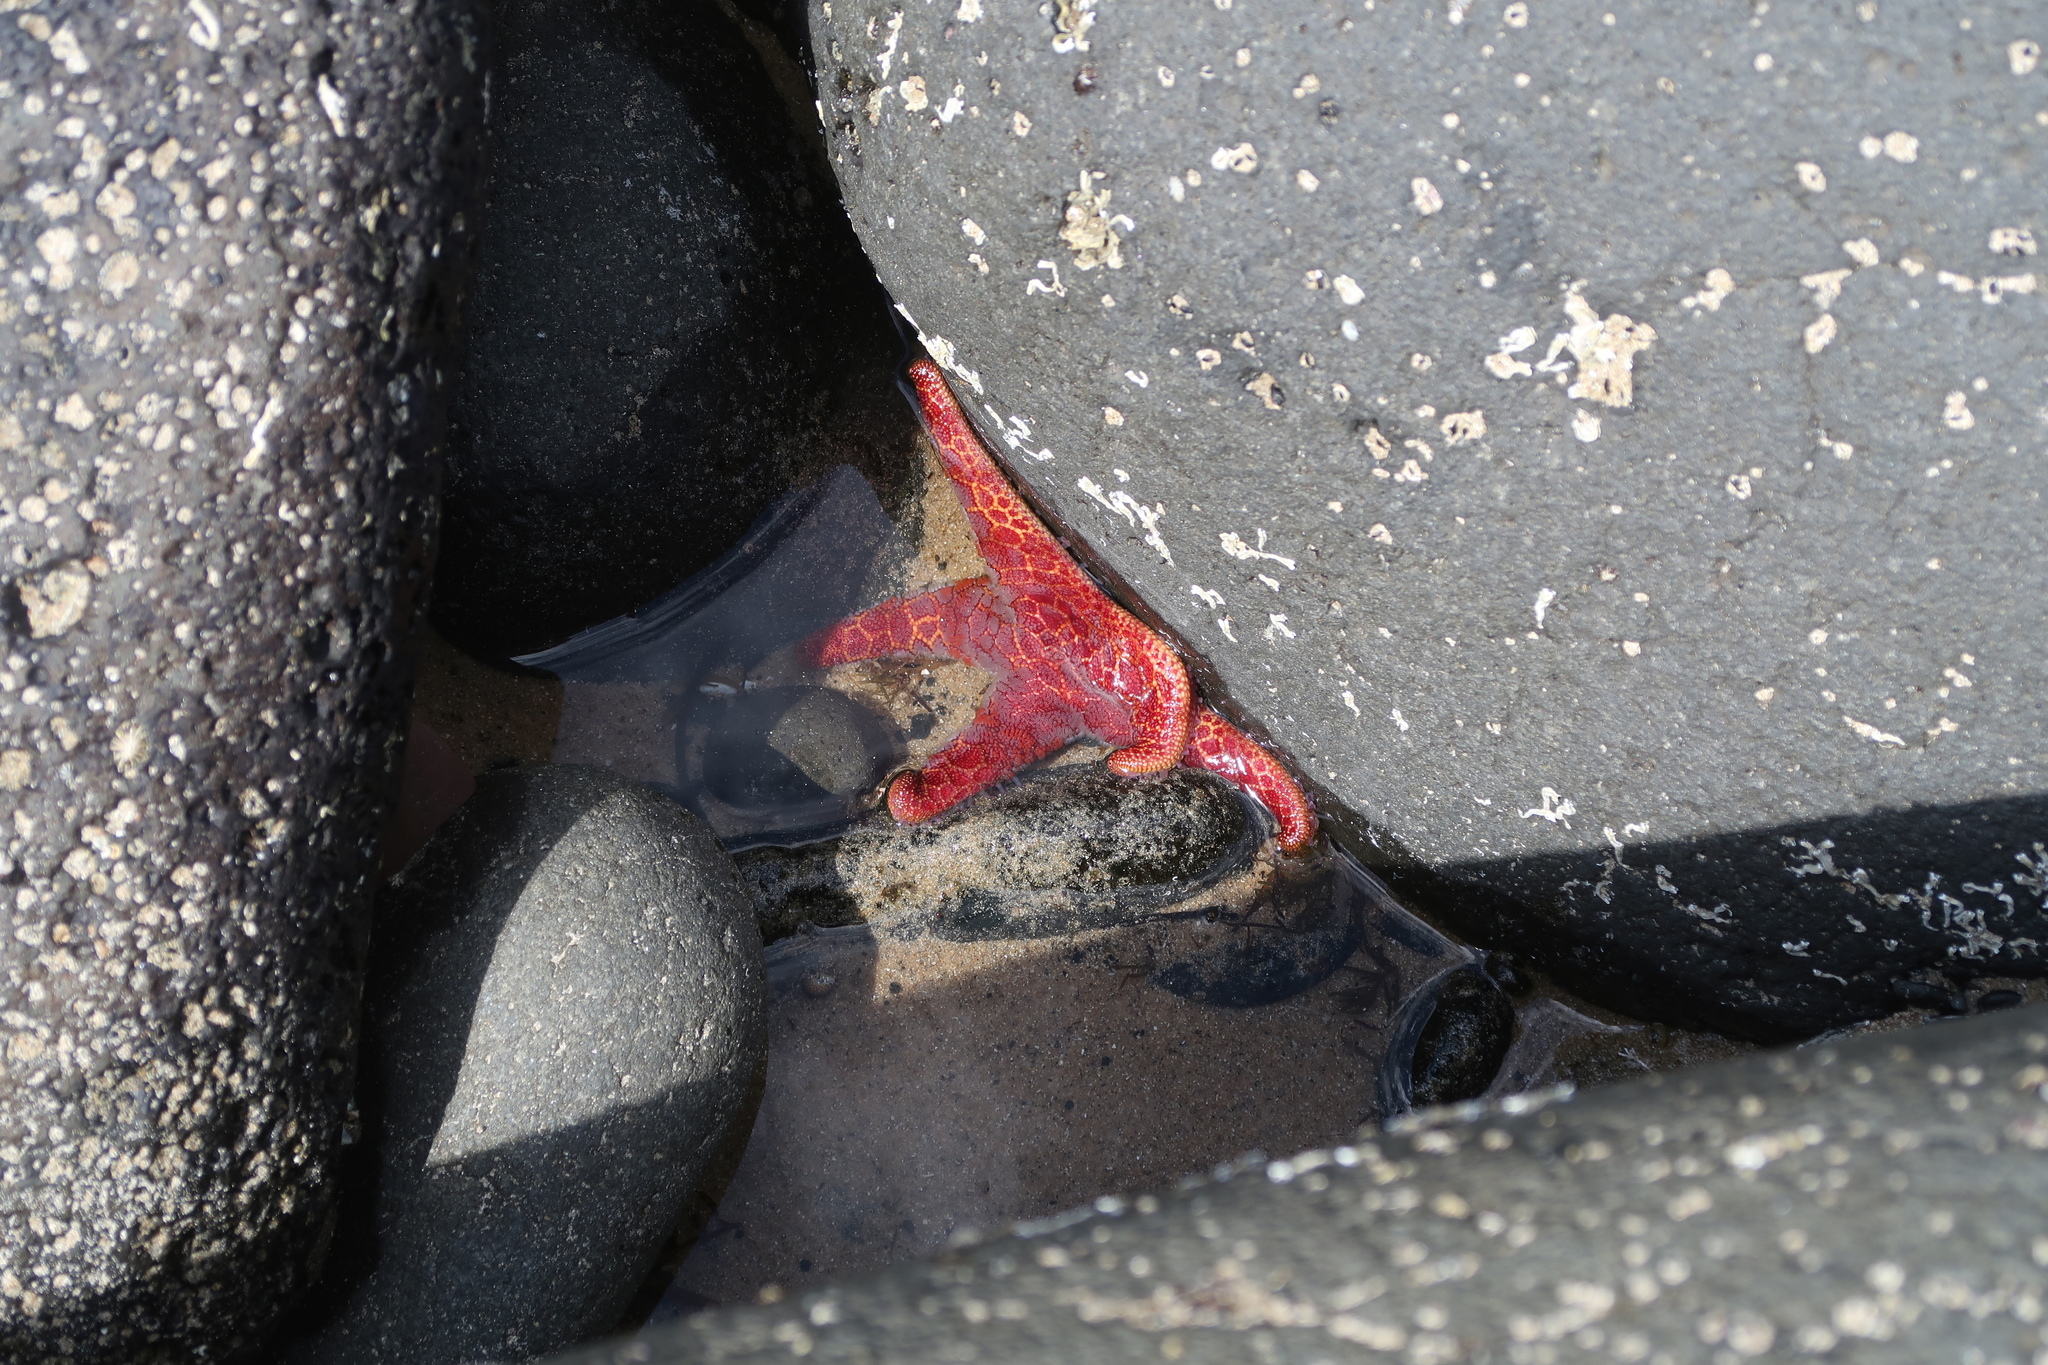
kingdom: Animalia
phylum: Echinodermata
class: Asteroidea
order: Spinulosida
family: Echinasteridae
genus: Plectaster
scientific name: Plectaster decanus
